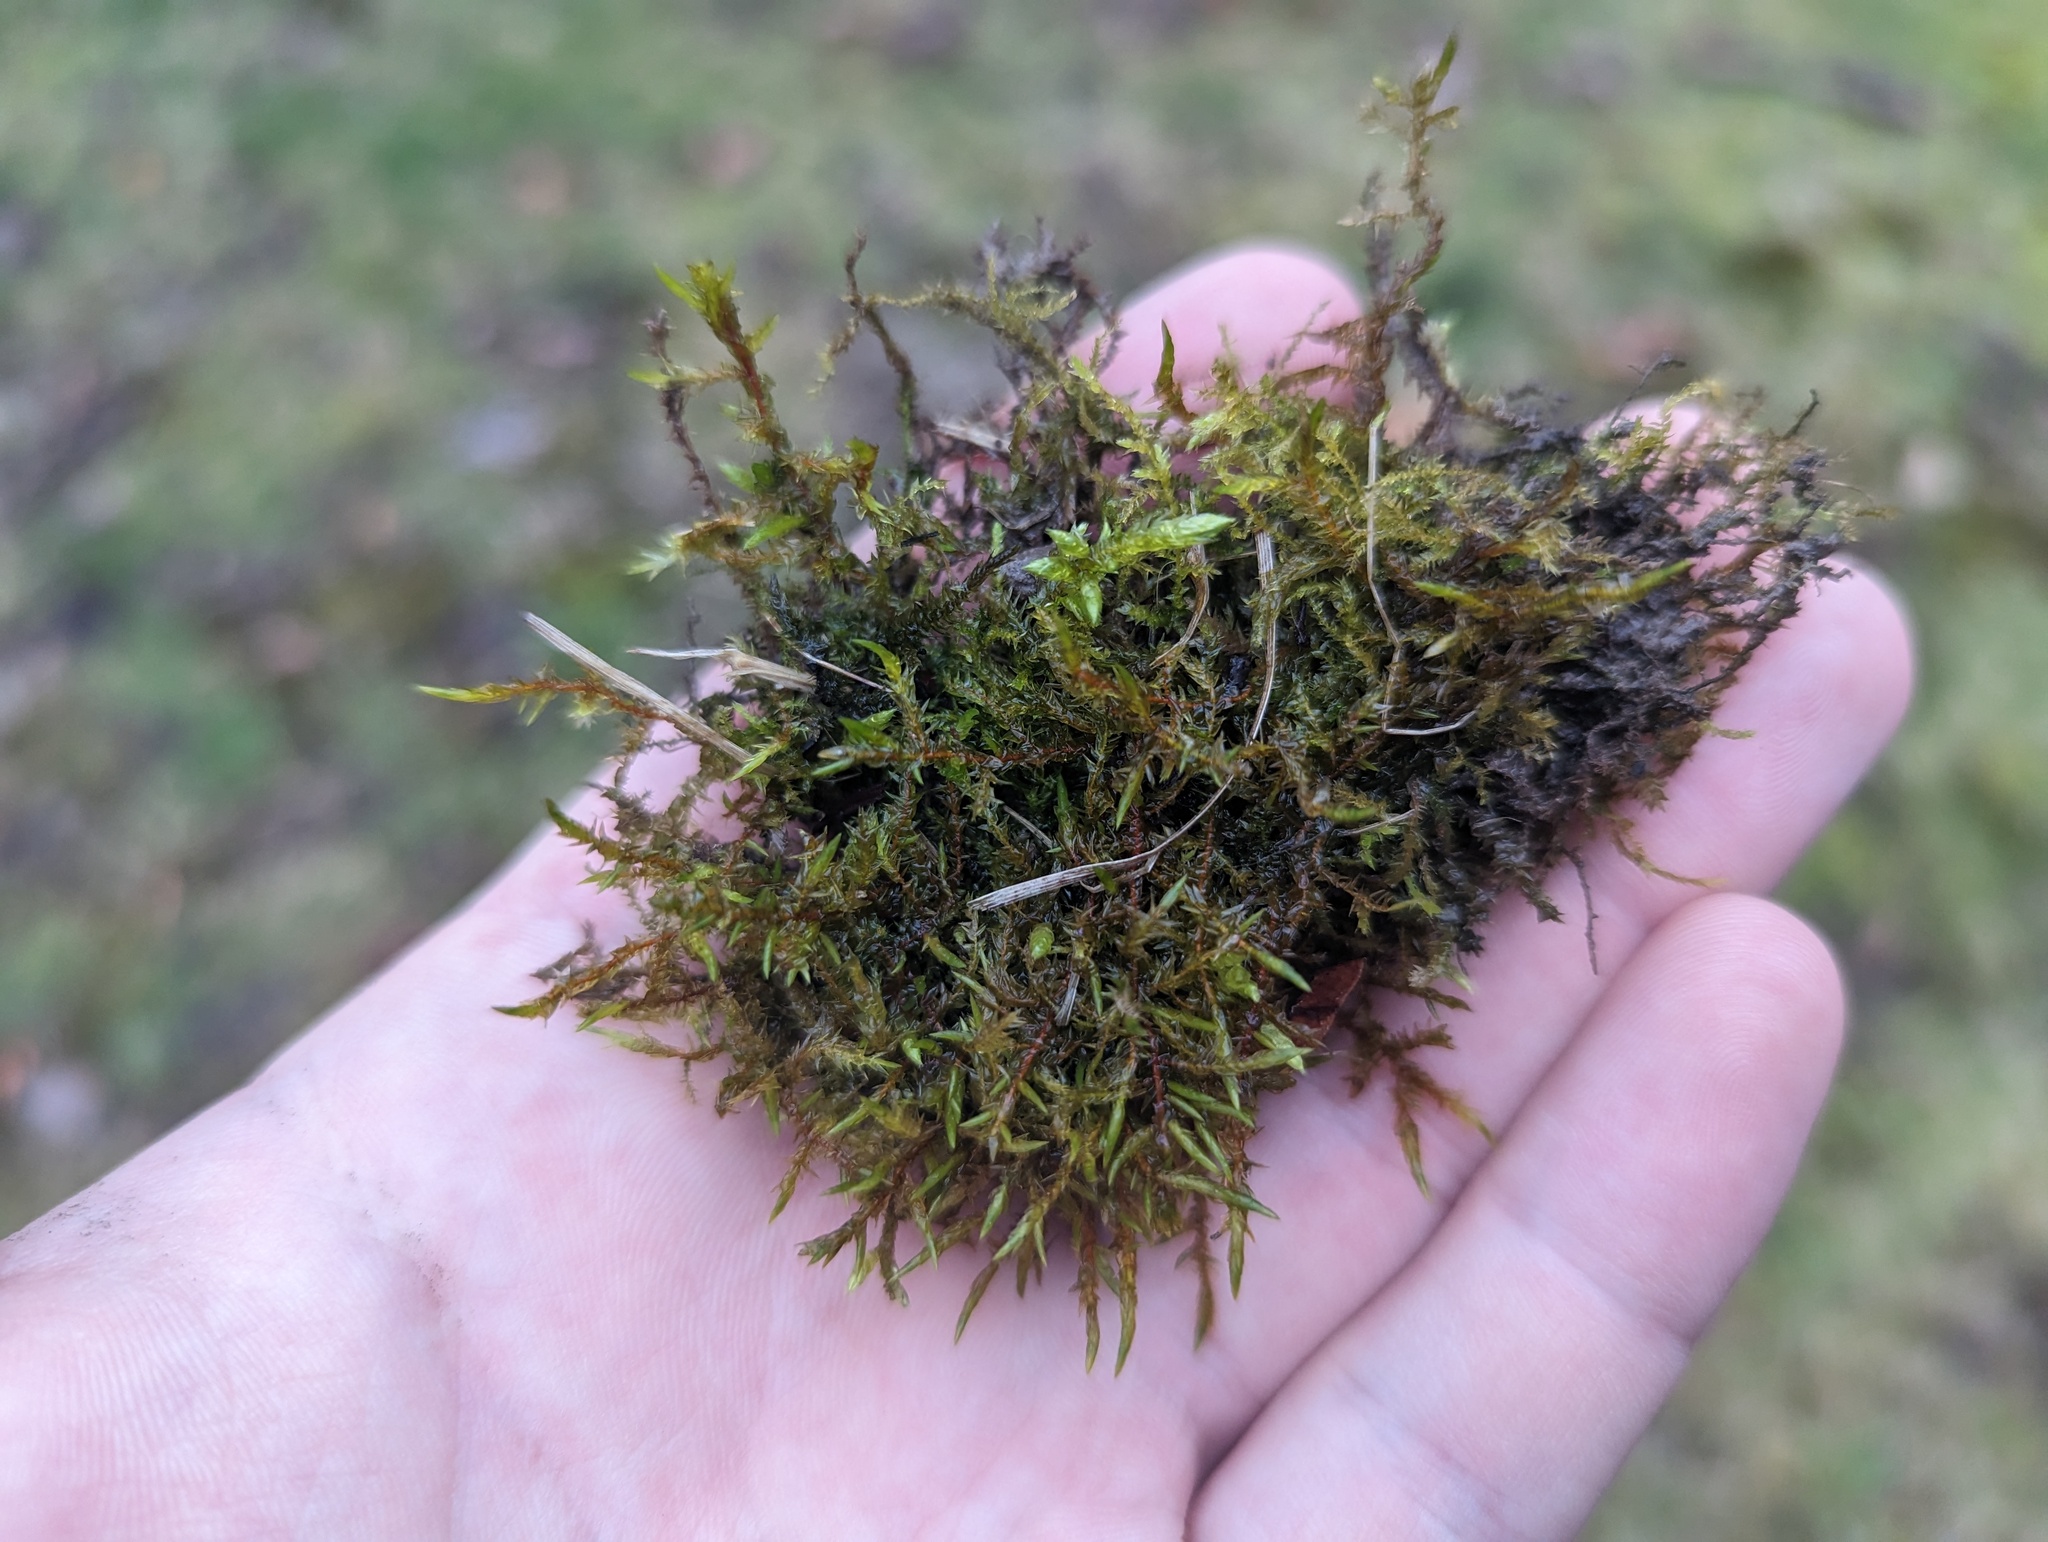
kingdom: Plantae
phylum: Bryophyta
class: Bryopsida
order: Hypnales
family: Pylaisiaceae
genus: Calliergonella
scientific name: Calliergonella cuspidata
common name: Common large wetland moss
